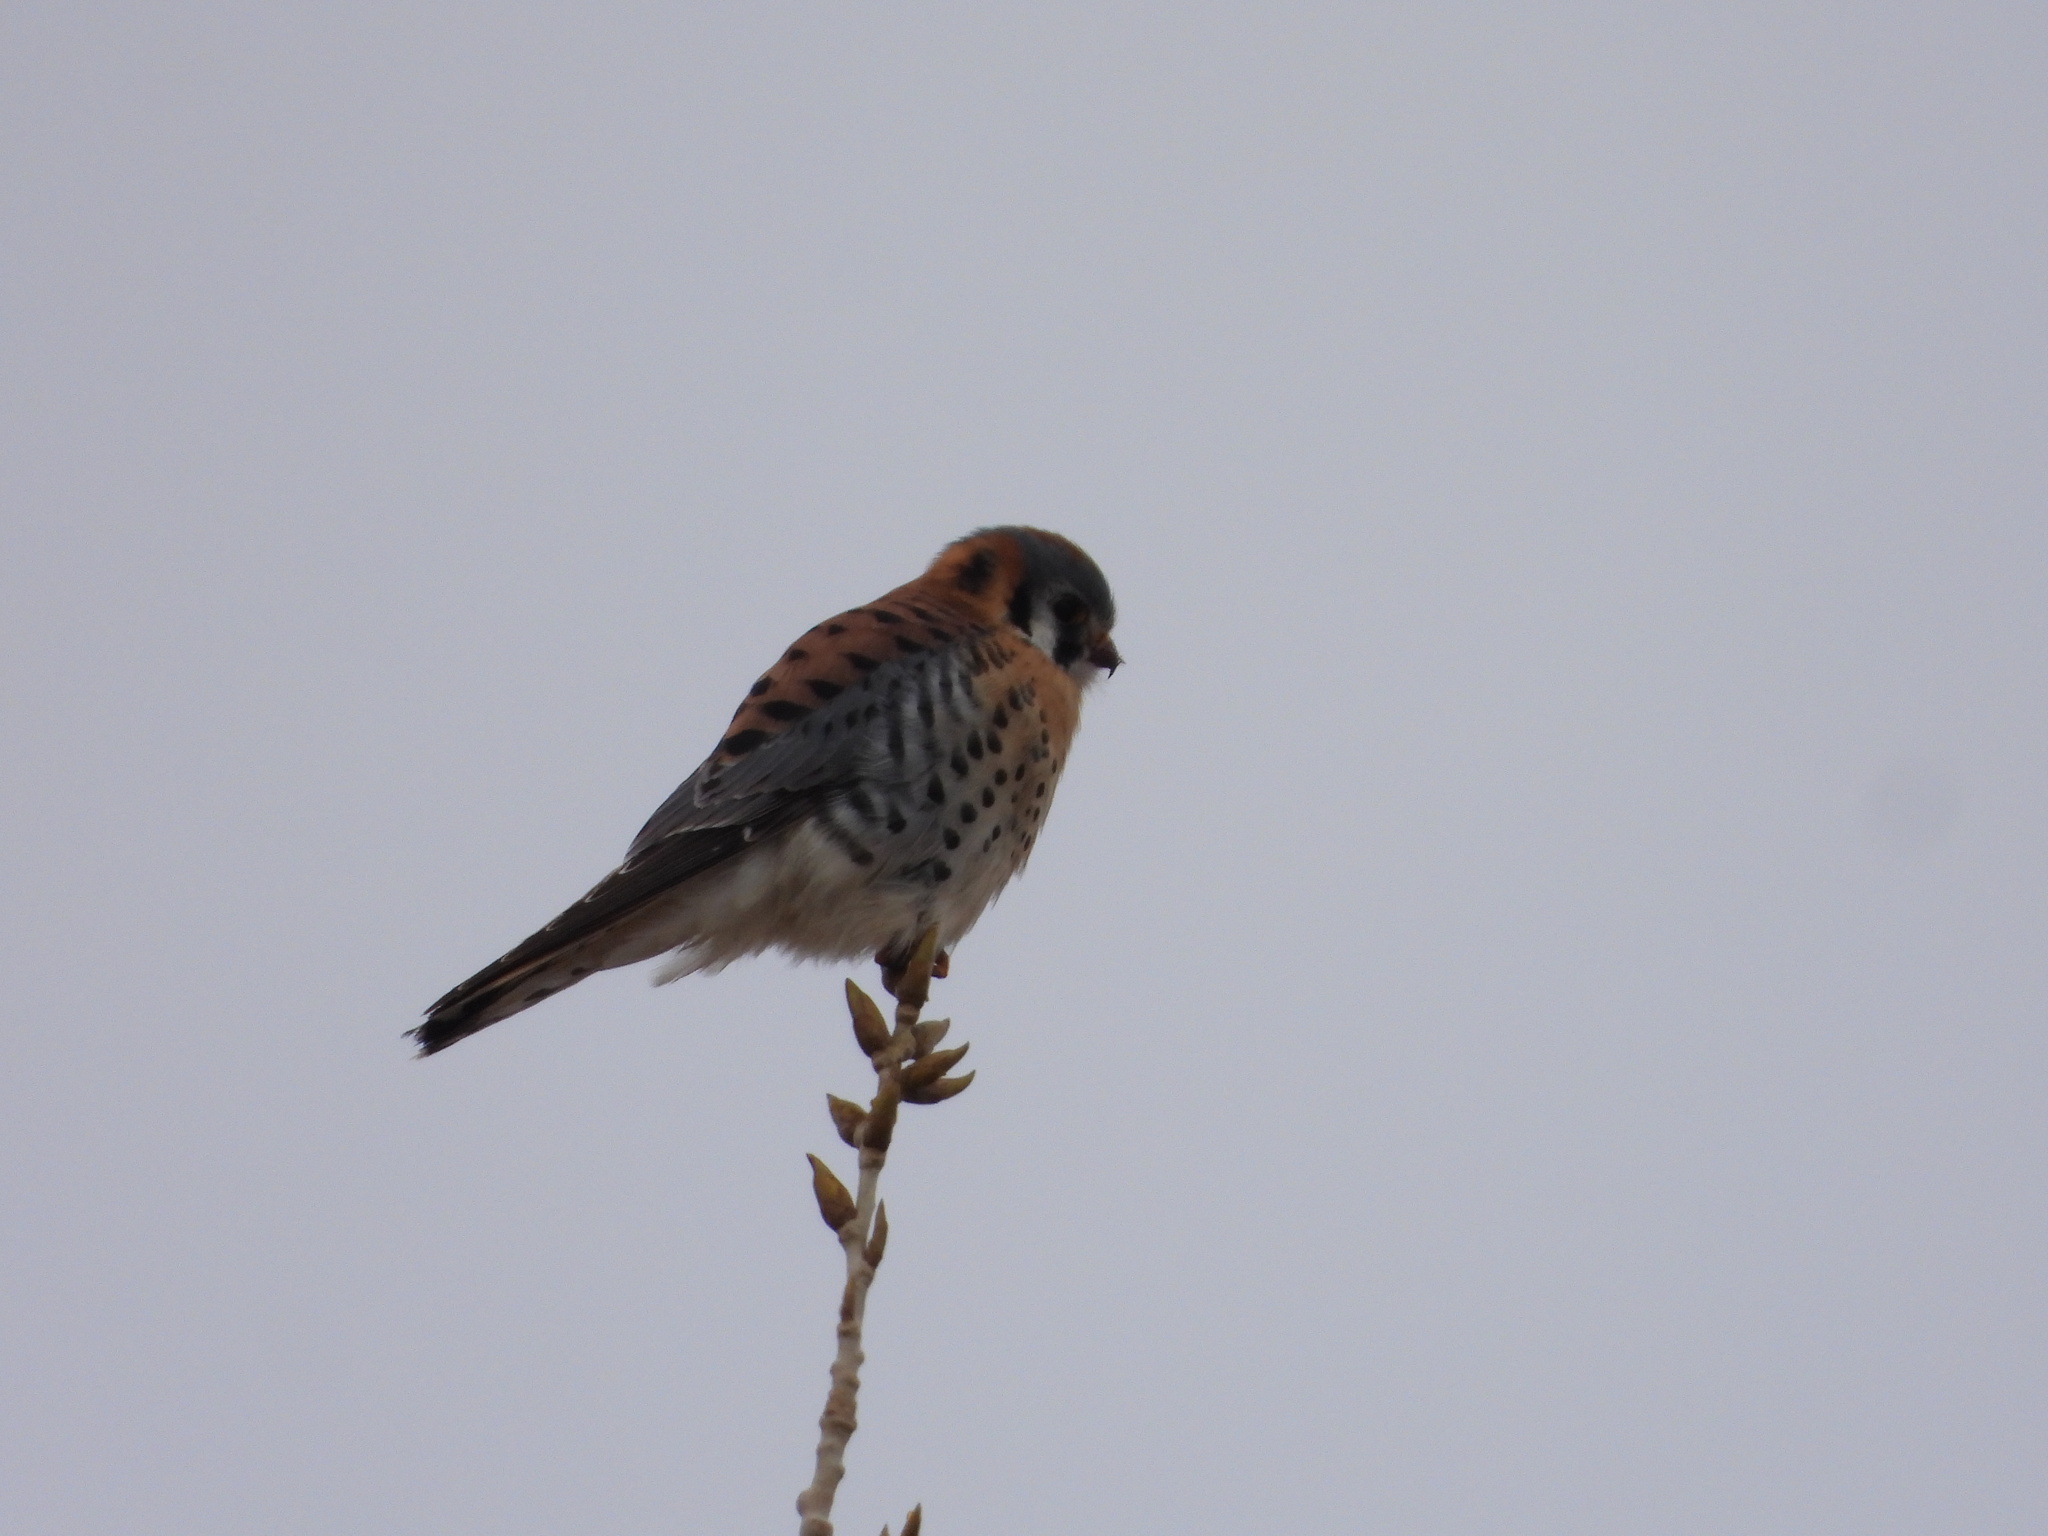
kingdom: Animalia
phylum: Chordata
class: Aves
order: Falconiformes
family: Falconidae
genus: Falco
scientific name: Falco sparverius
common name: American kestrel
